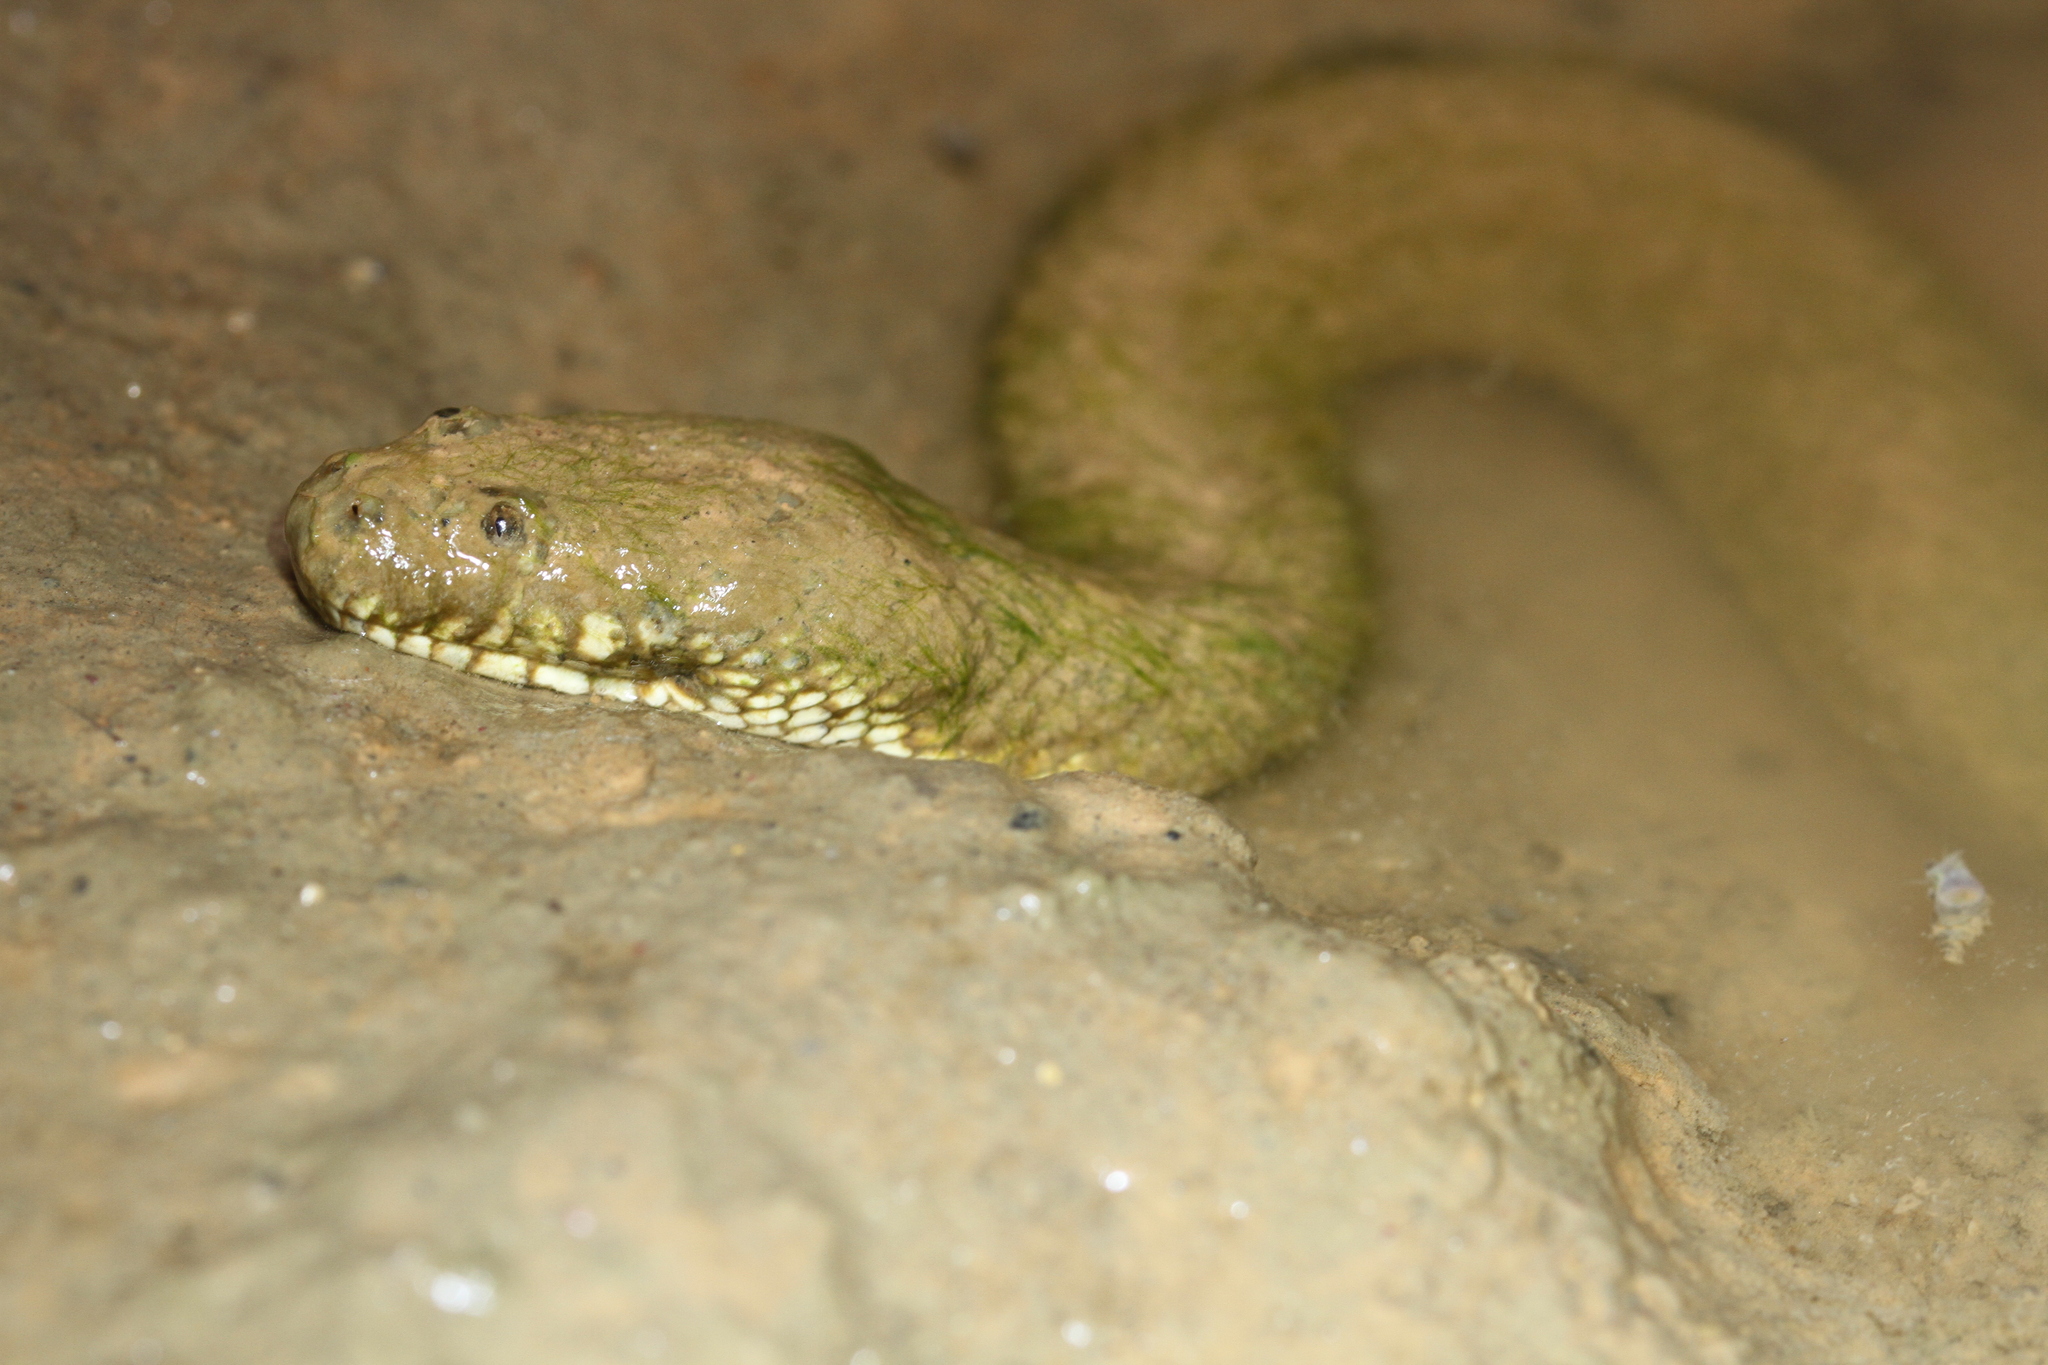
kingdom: Animalia
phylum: Chordata
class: Squamata
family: Homalopsidae
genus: Cerberus
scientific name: Cerberus schneiderii
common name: Southeast asian bockadam
